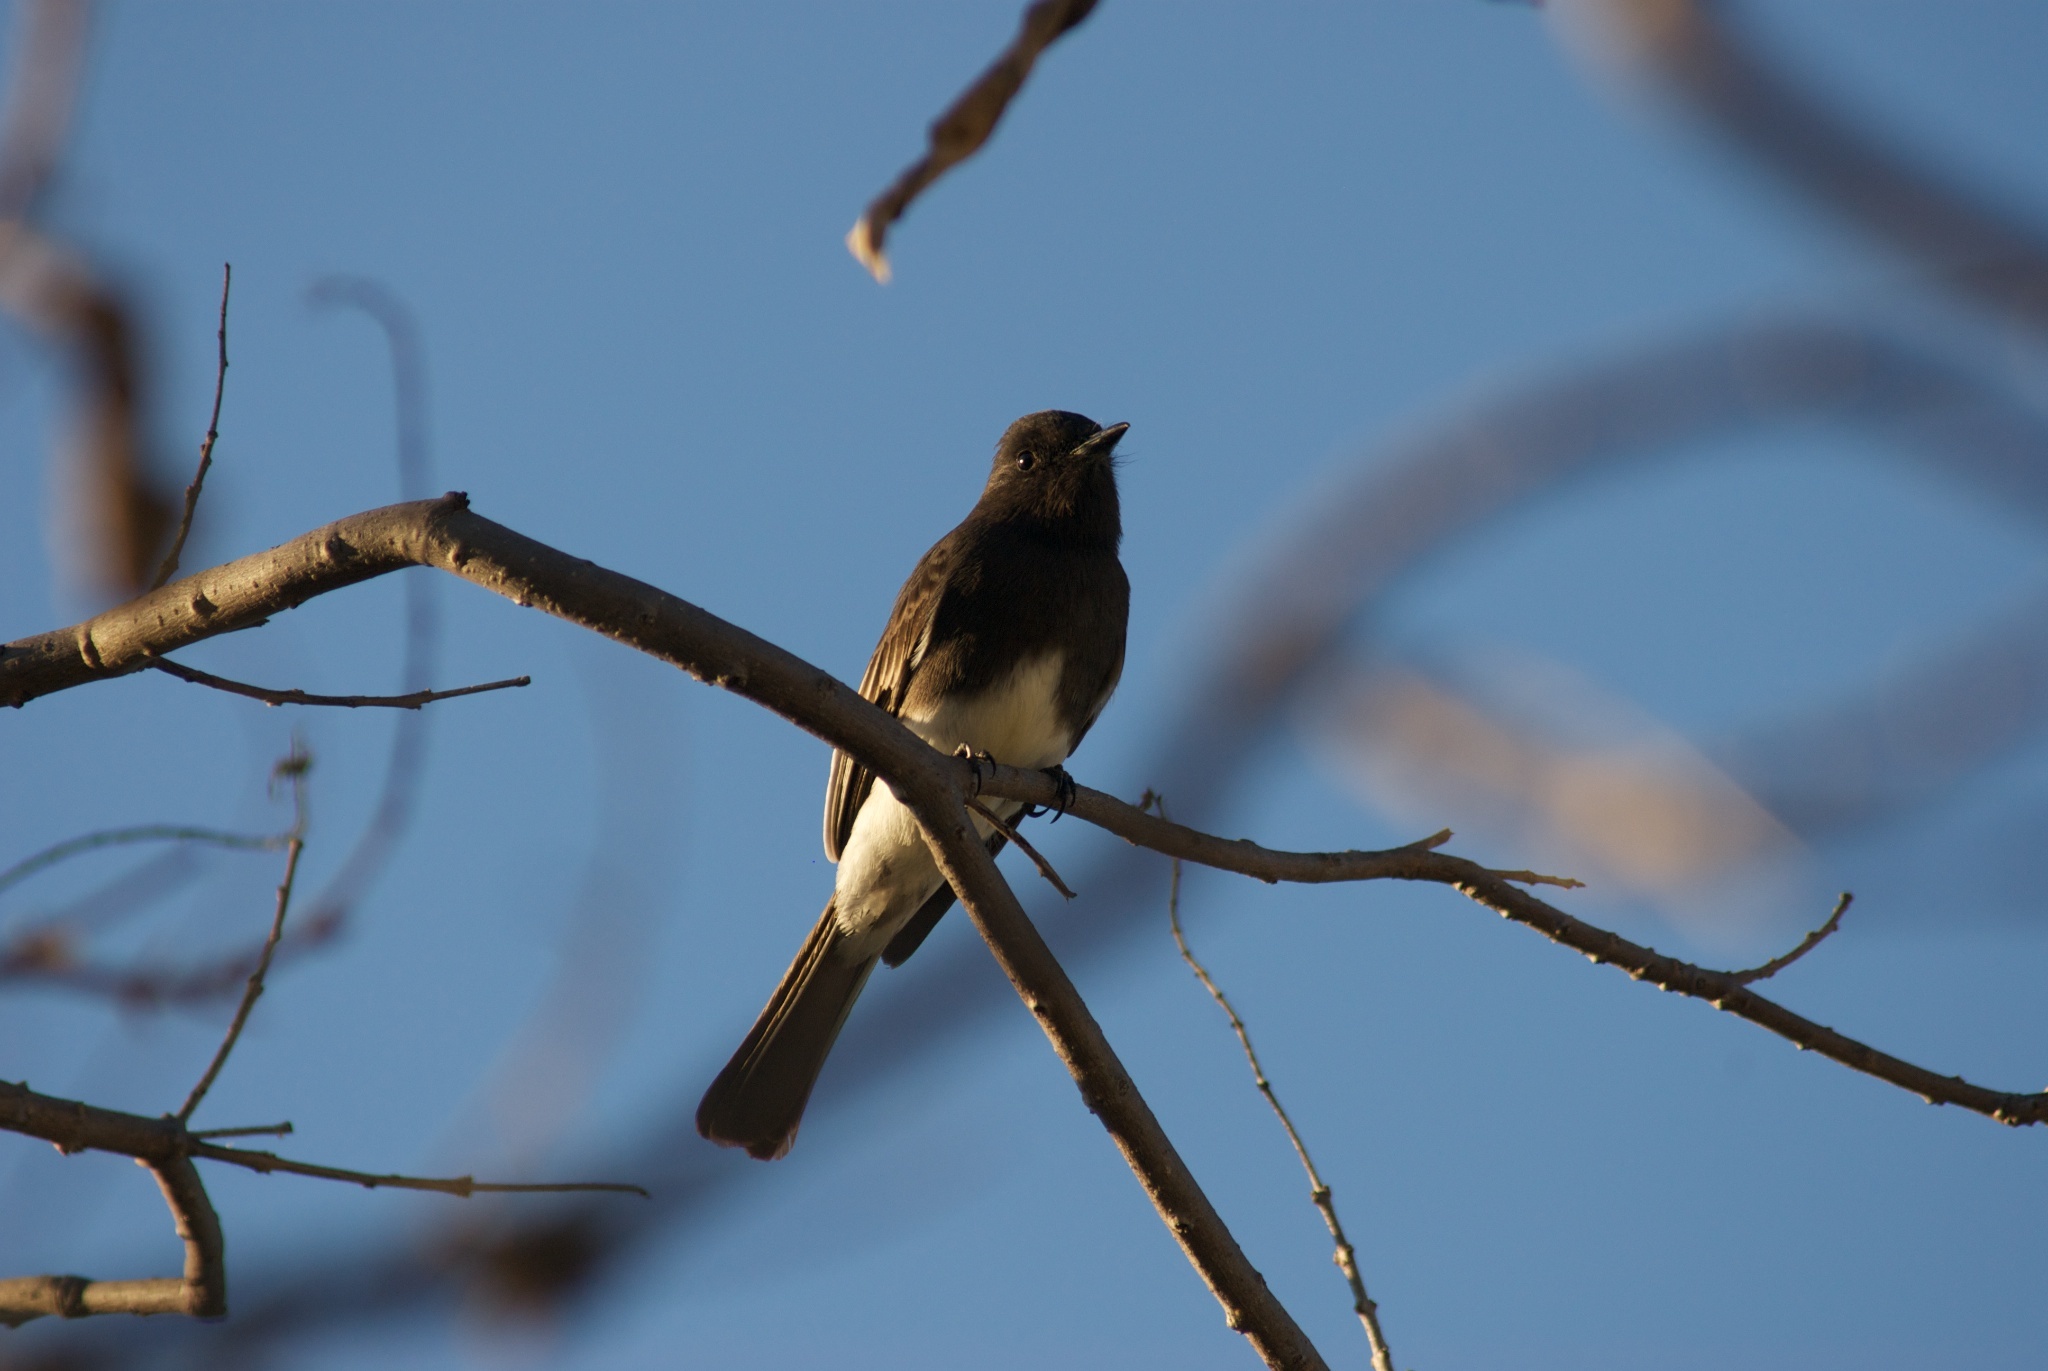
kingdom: Animalia
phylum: Chordata
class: Aves
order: Passeriformes
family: Tyrannidae
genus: Sayornis
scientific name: Sayornis nigricans
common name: Black phoebe
